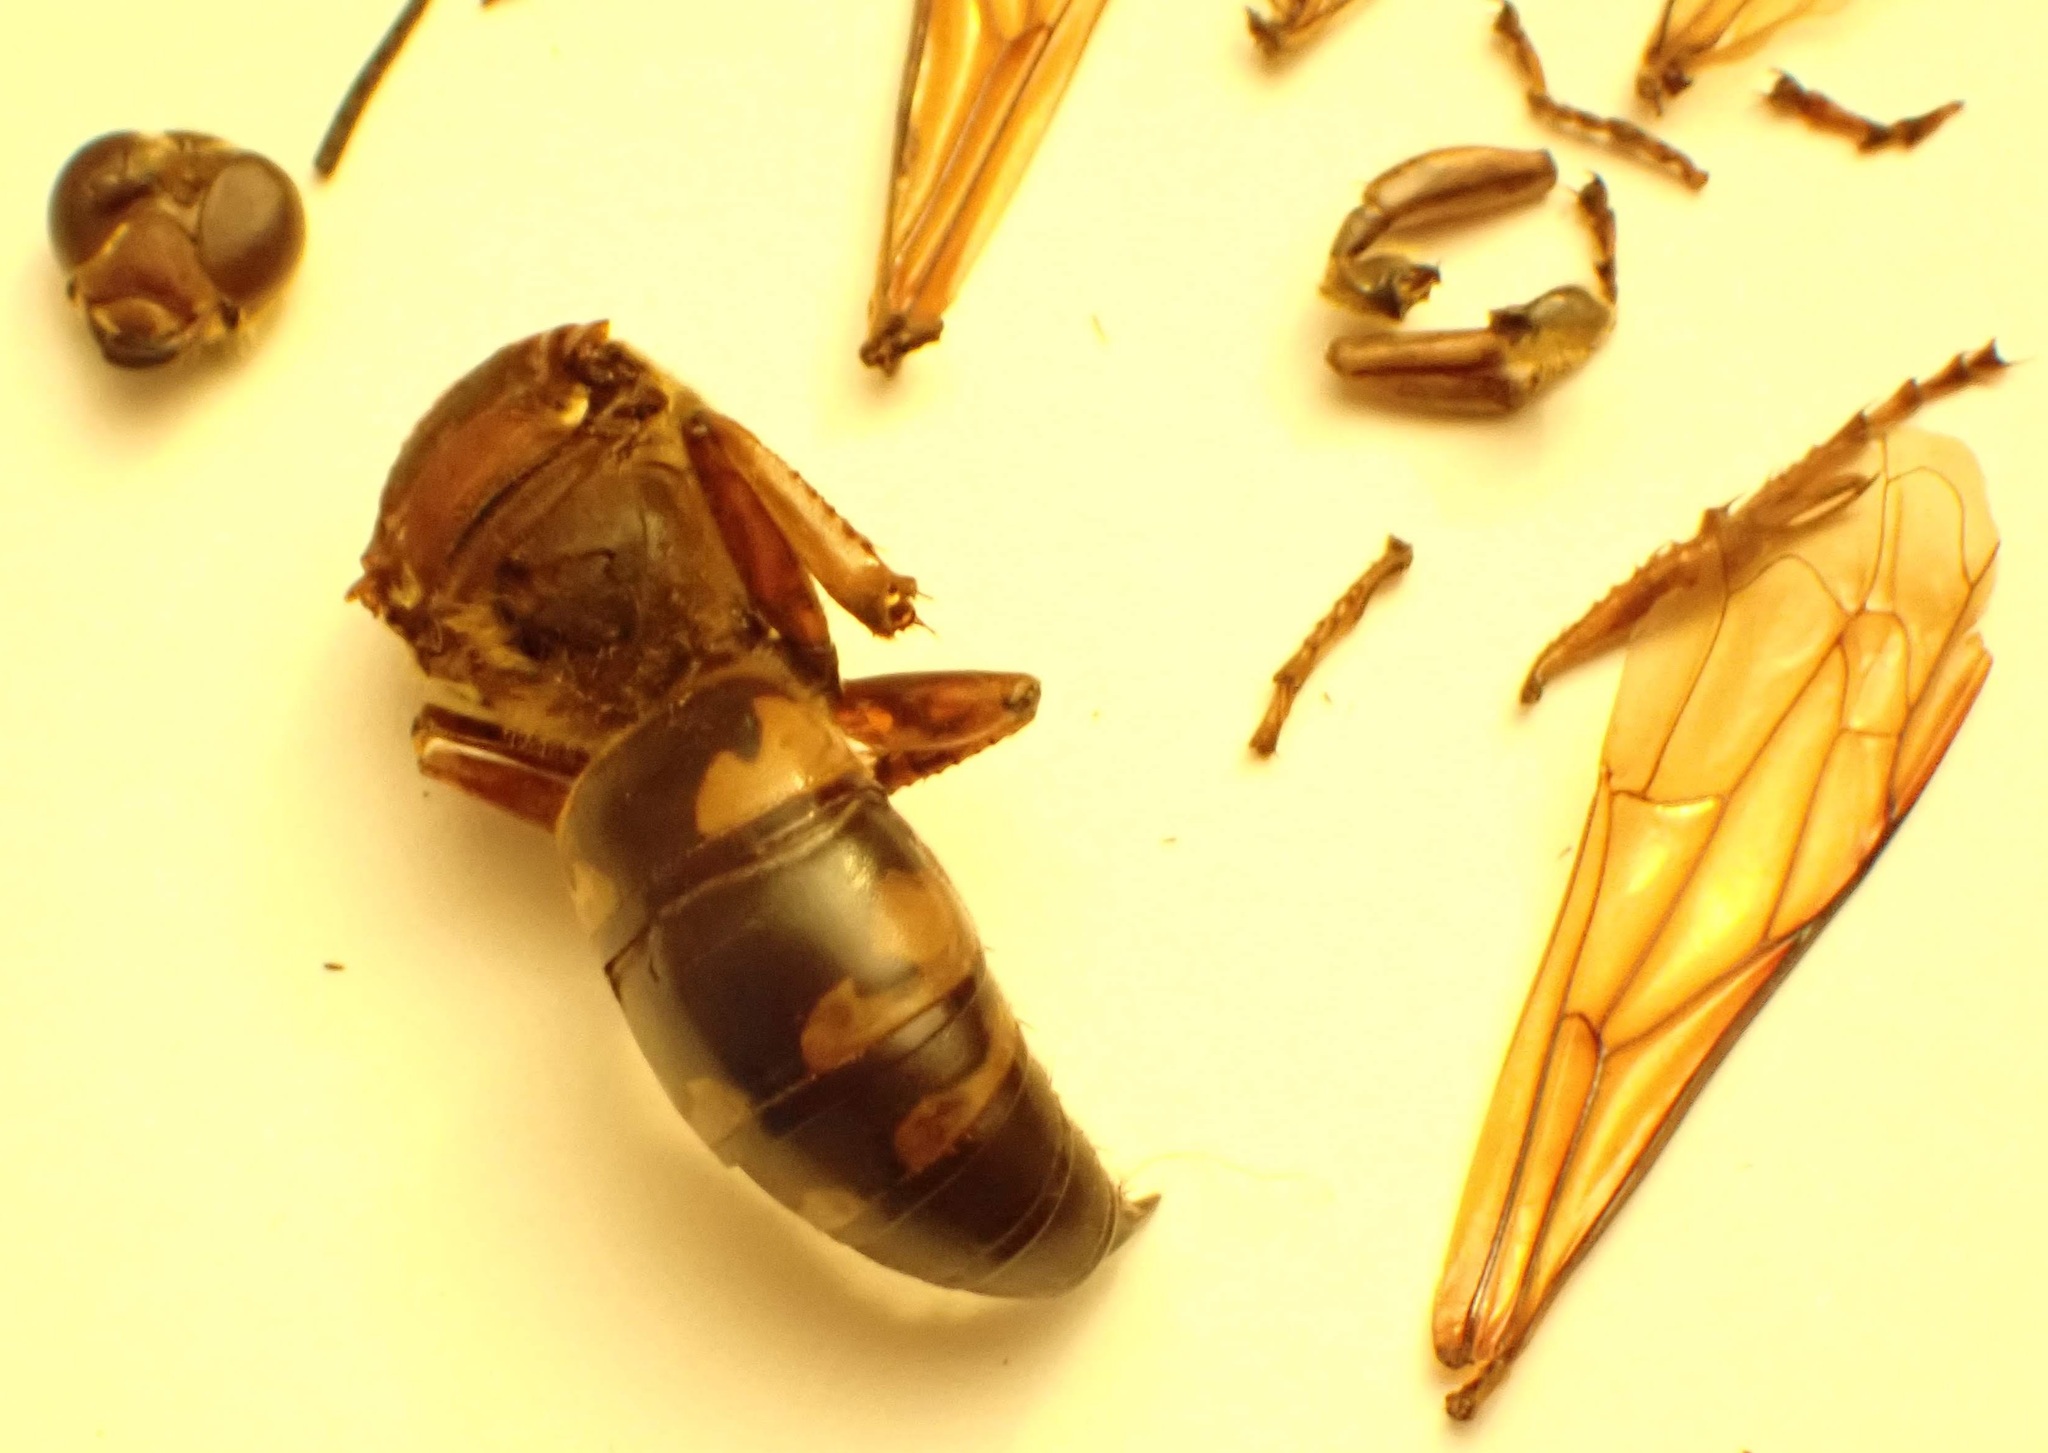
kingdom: Animalia
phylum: Arthropoda
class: Insecta
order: Hymenoptera
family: Crabronidae
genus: Sphecius
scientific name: Sphecius speciosus
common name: Cicada killer
